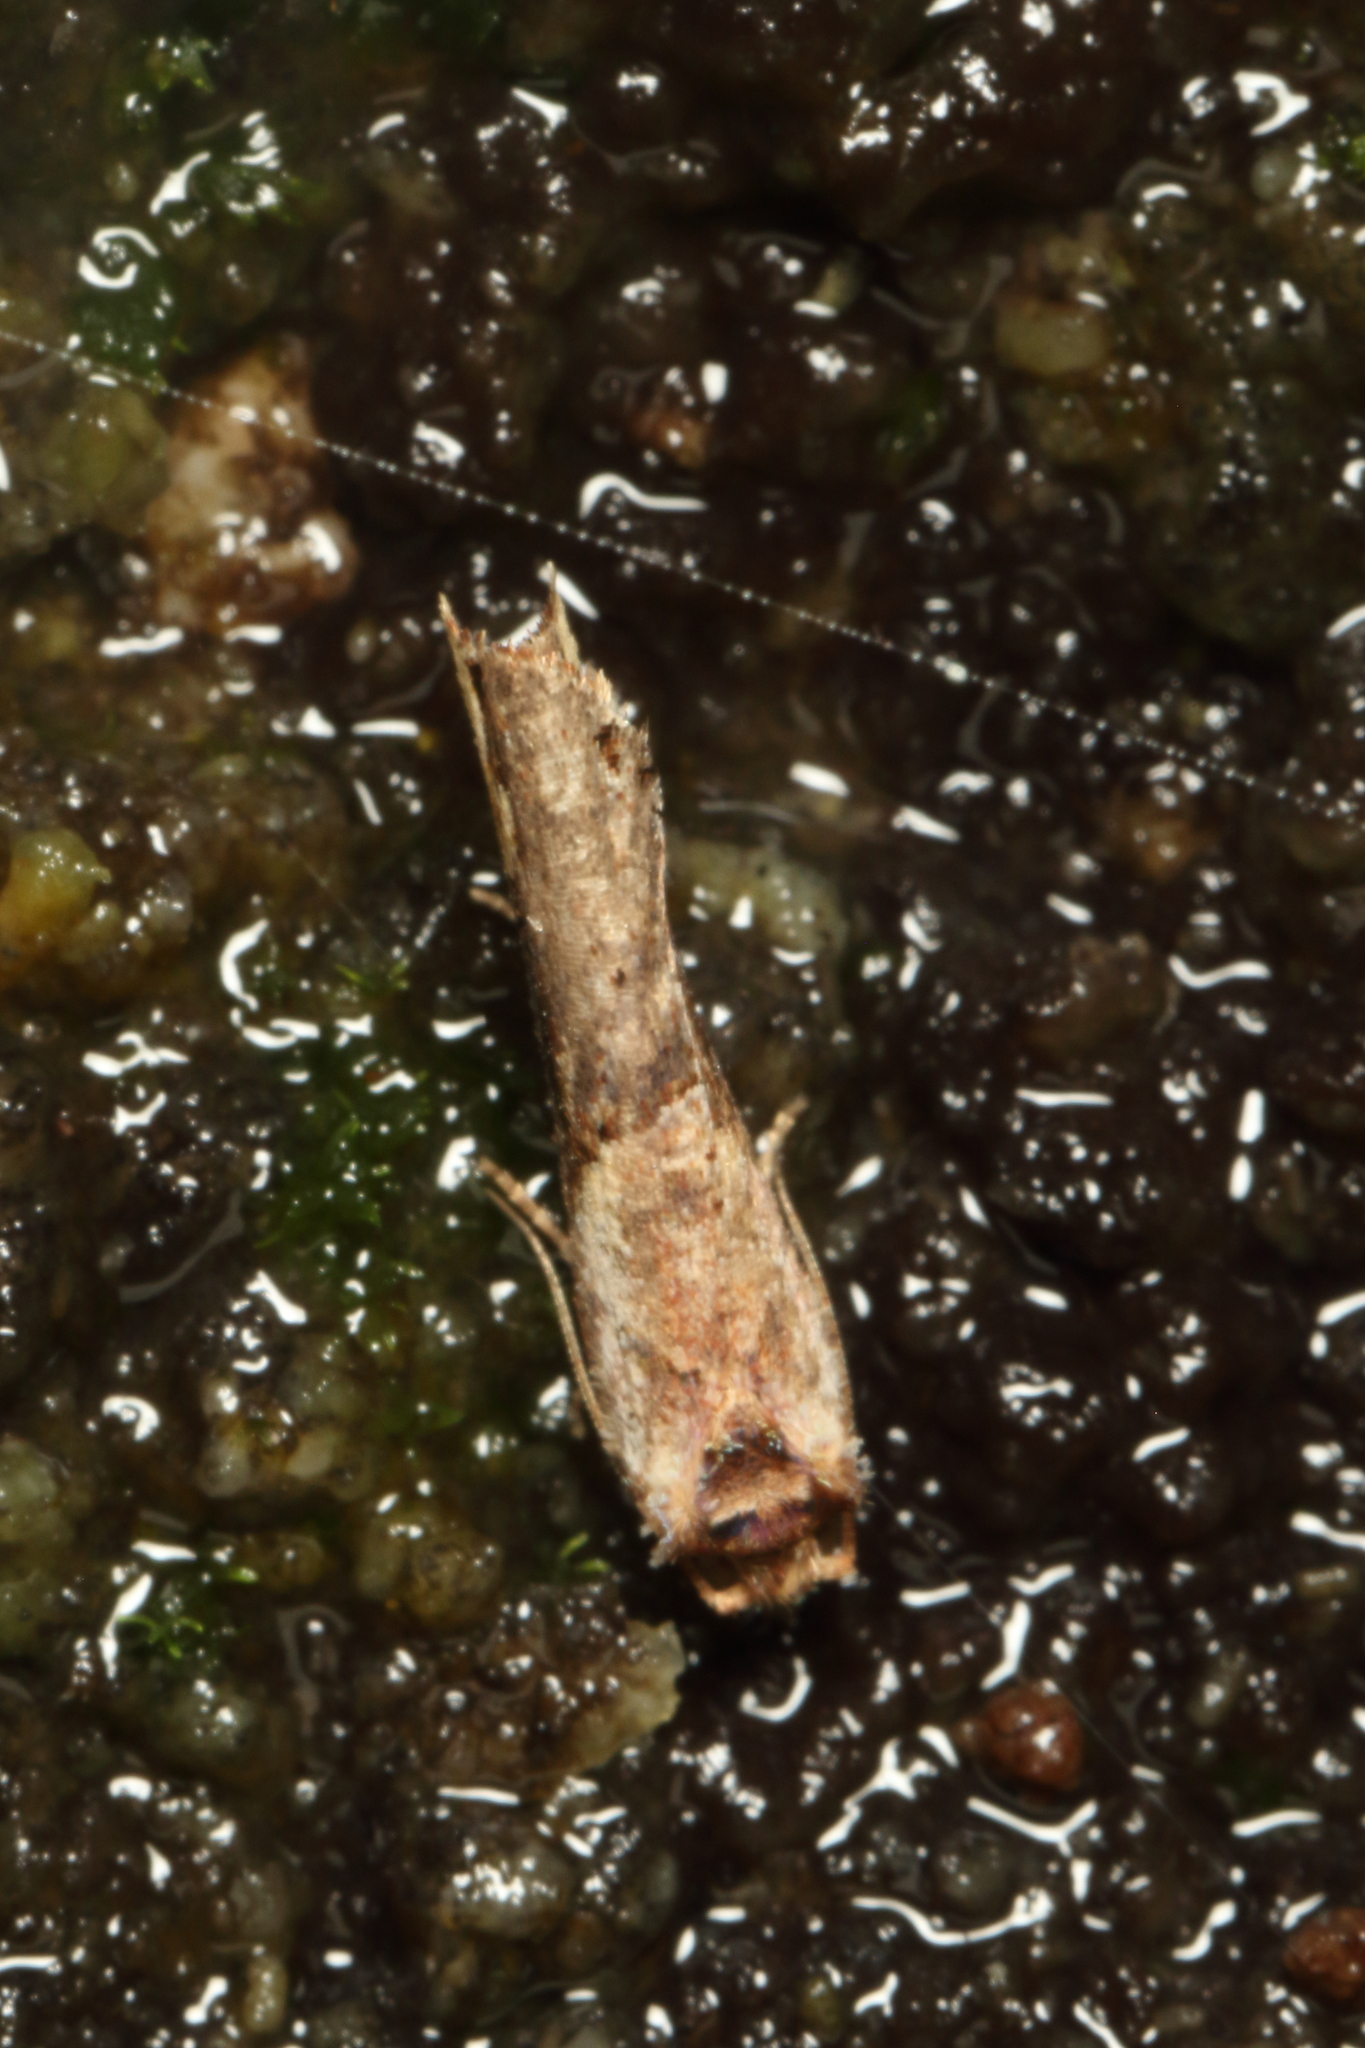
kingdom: Animalia
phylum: Arthropoda
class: Insecta
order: Lepidoptera
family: Tortricidae
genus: Epalxiphora
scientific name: Epalxiphora axenana
